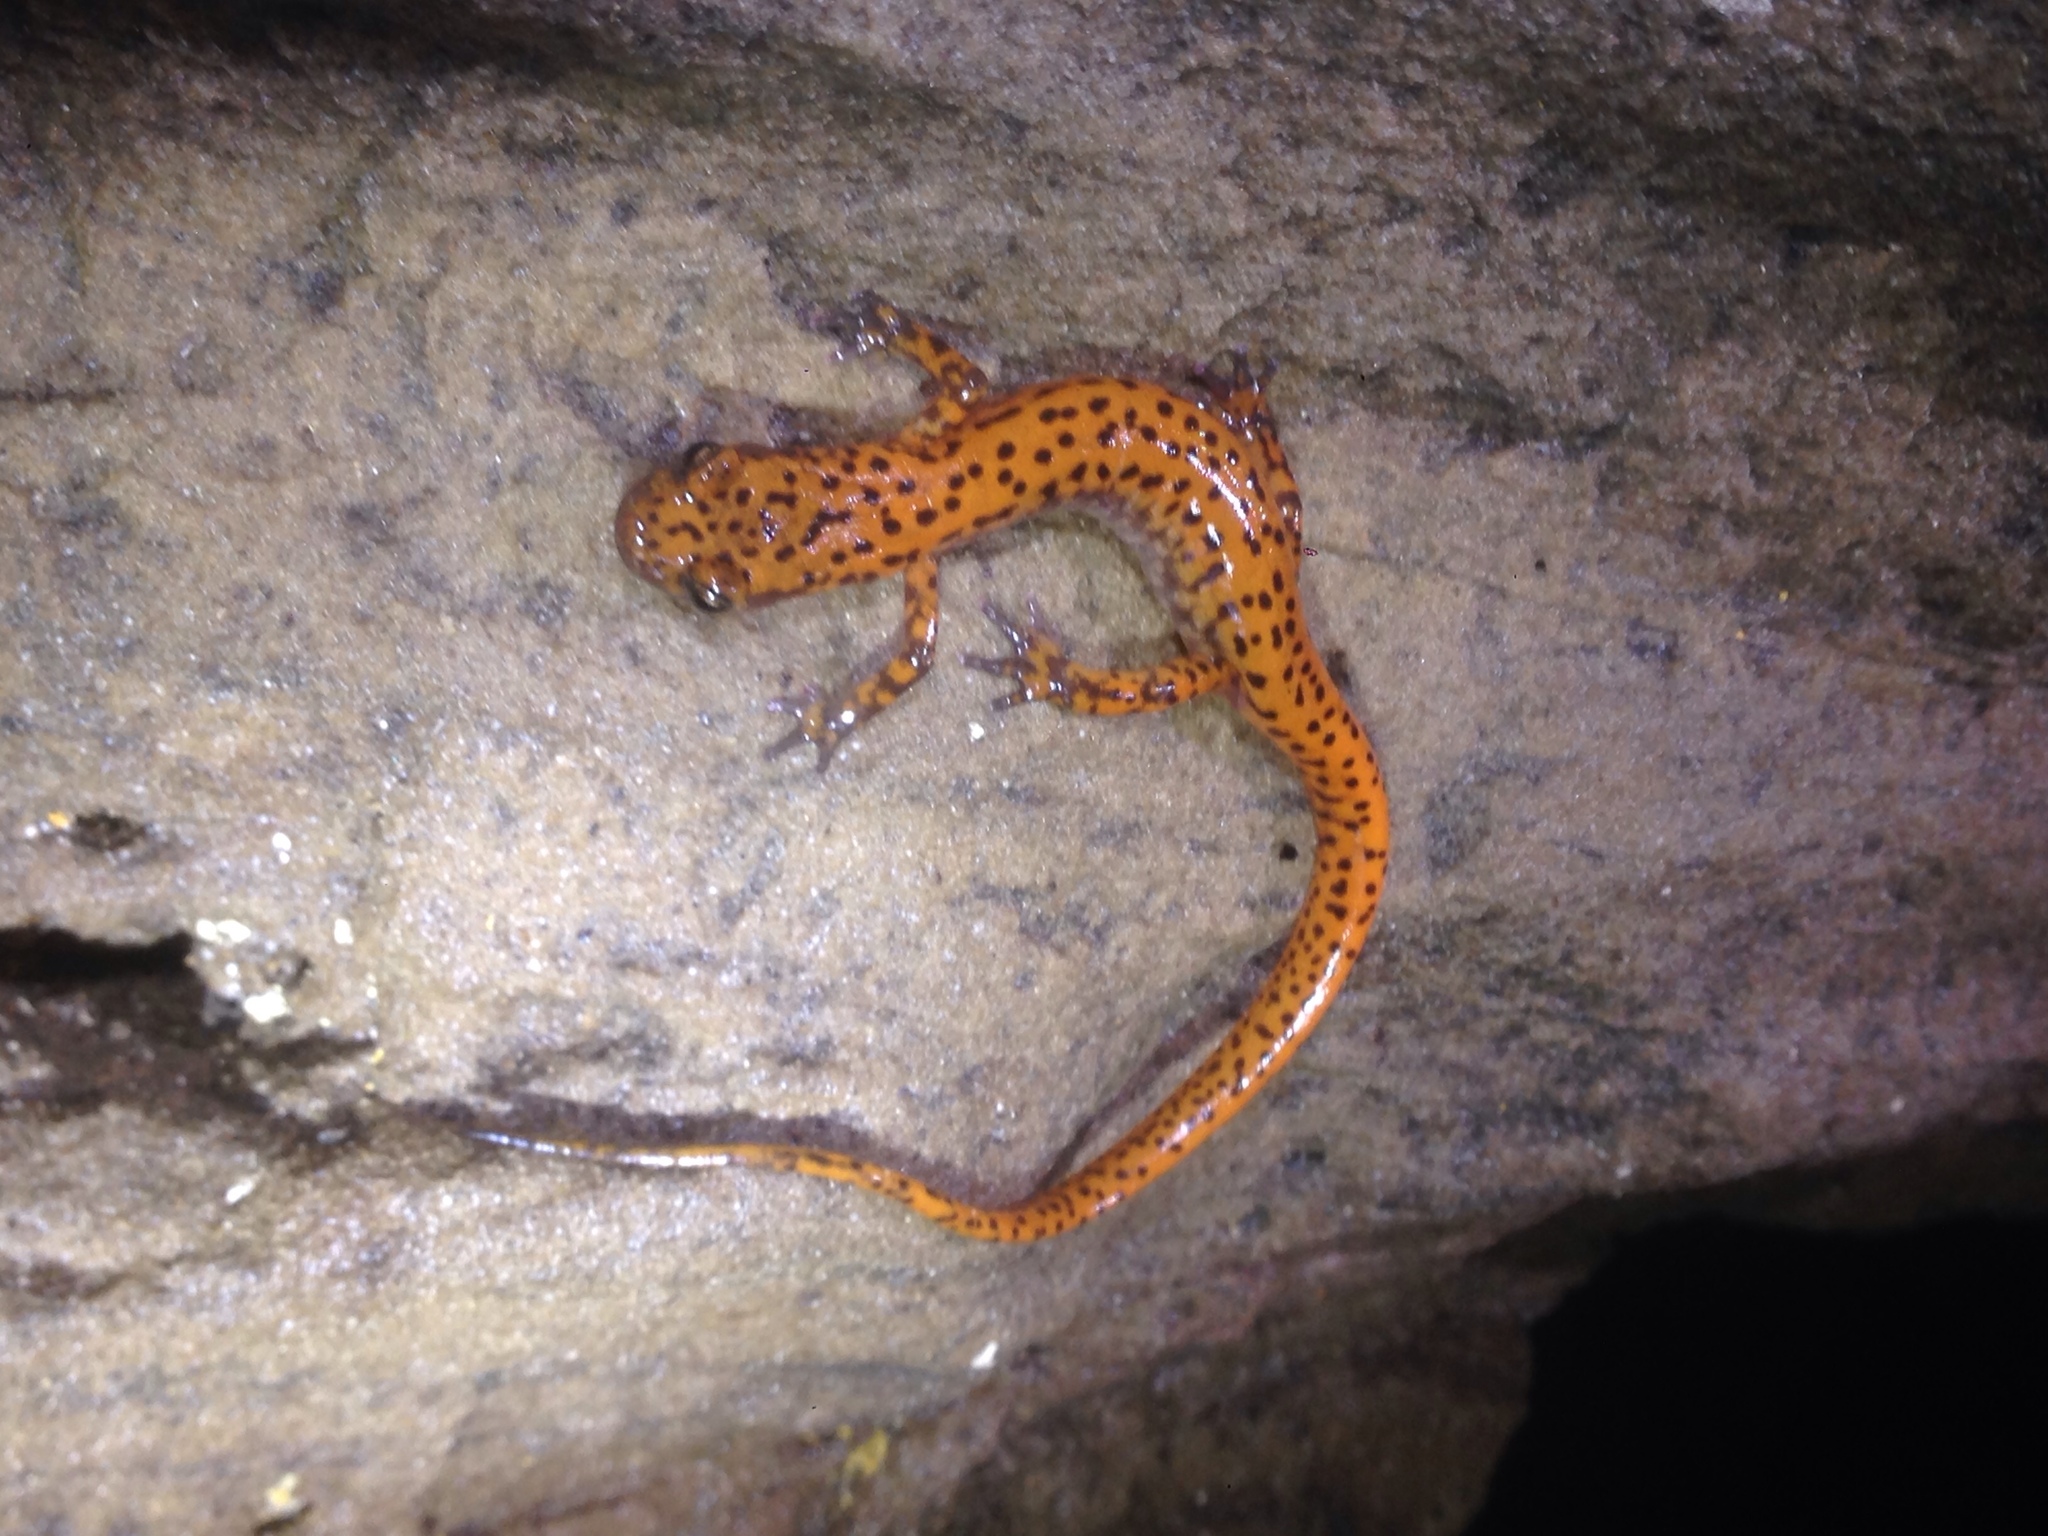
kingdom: Animalia
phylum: Chordata
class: Amphibia
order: Caudata
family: Plethodontidae
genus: Eurycea
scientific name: Eurycea lucifuga
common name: Cave salamander
